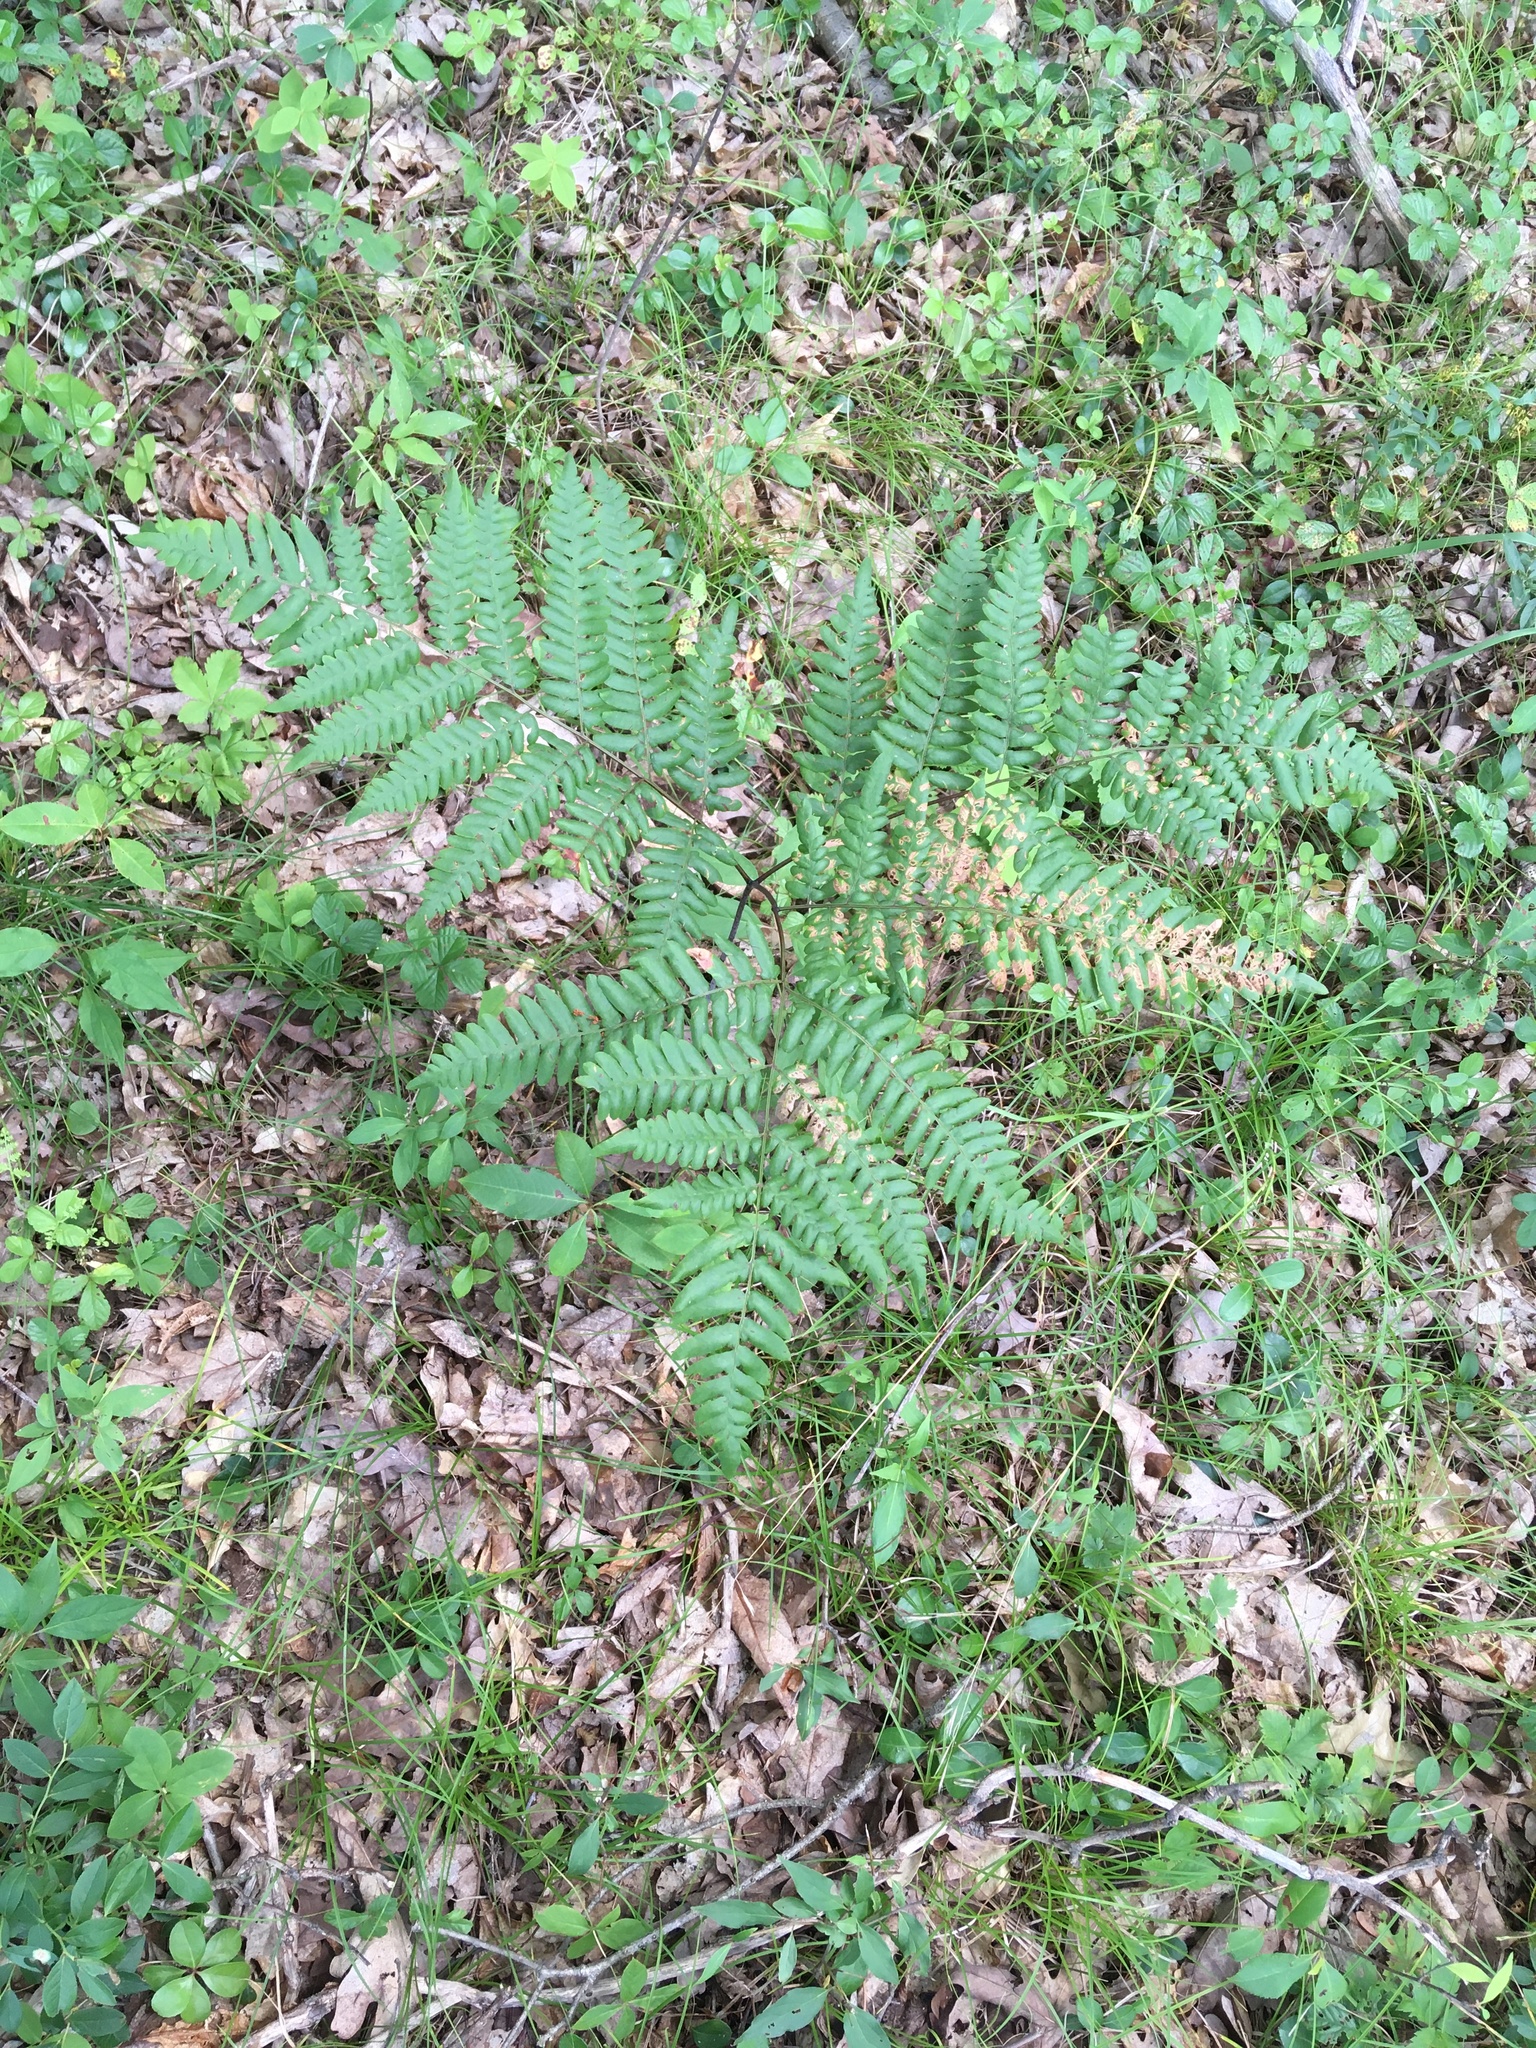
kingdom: Plantae
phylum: Tracheophyta
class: Polypodiopsida
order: Polypodiales
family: Dennstaedtiaceae
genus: Pteridium
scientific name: Pteridium aquilinum
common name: Bracken
